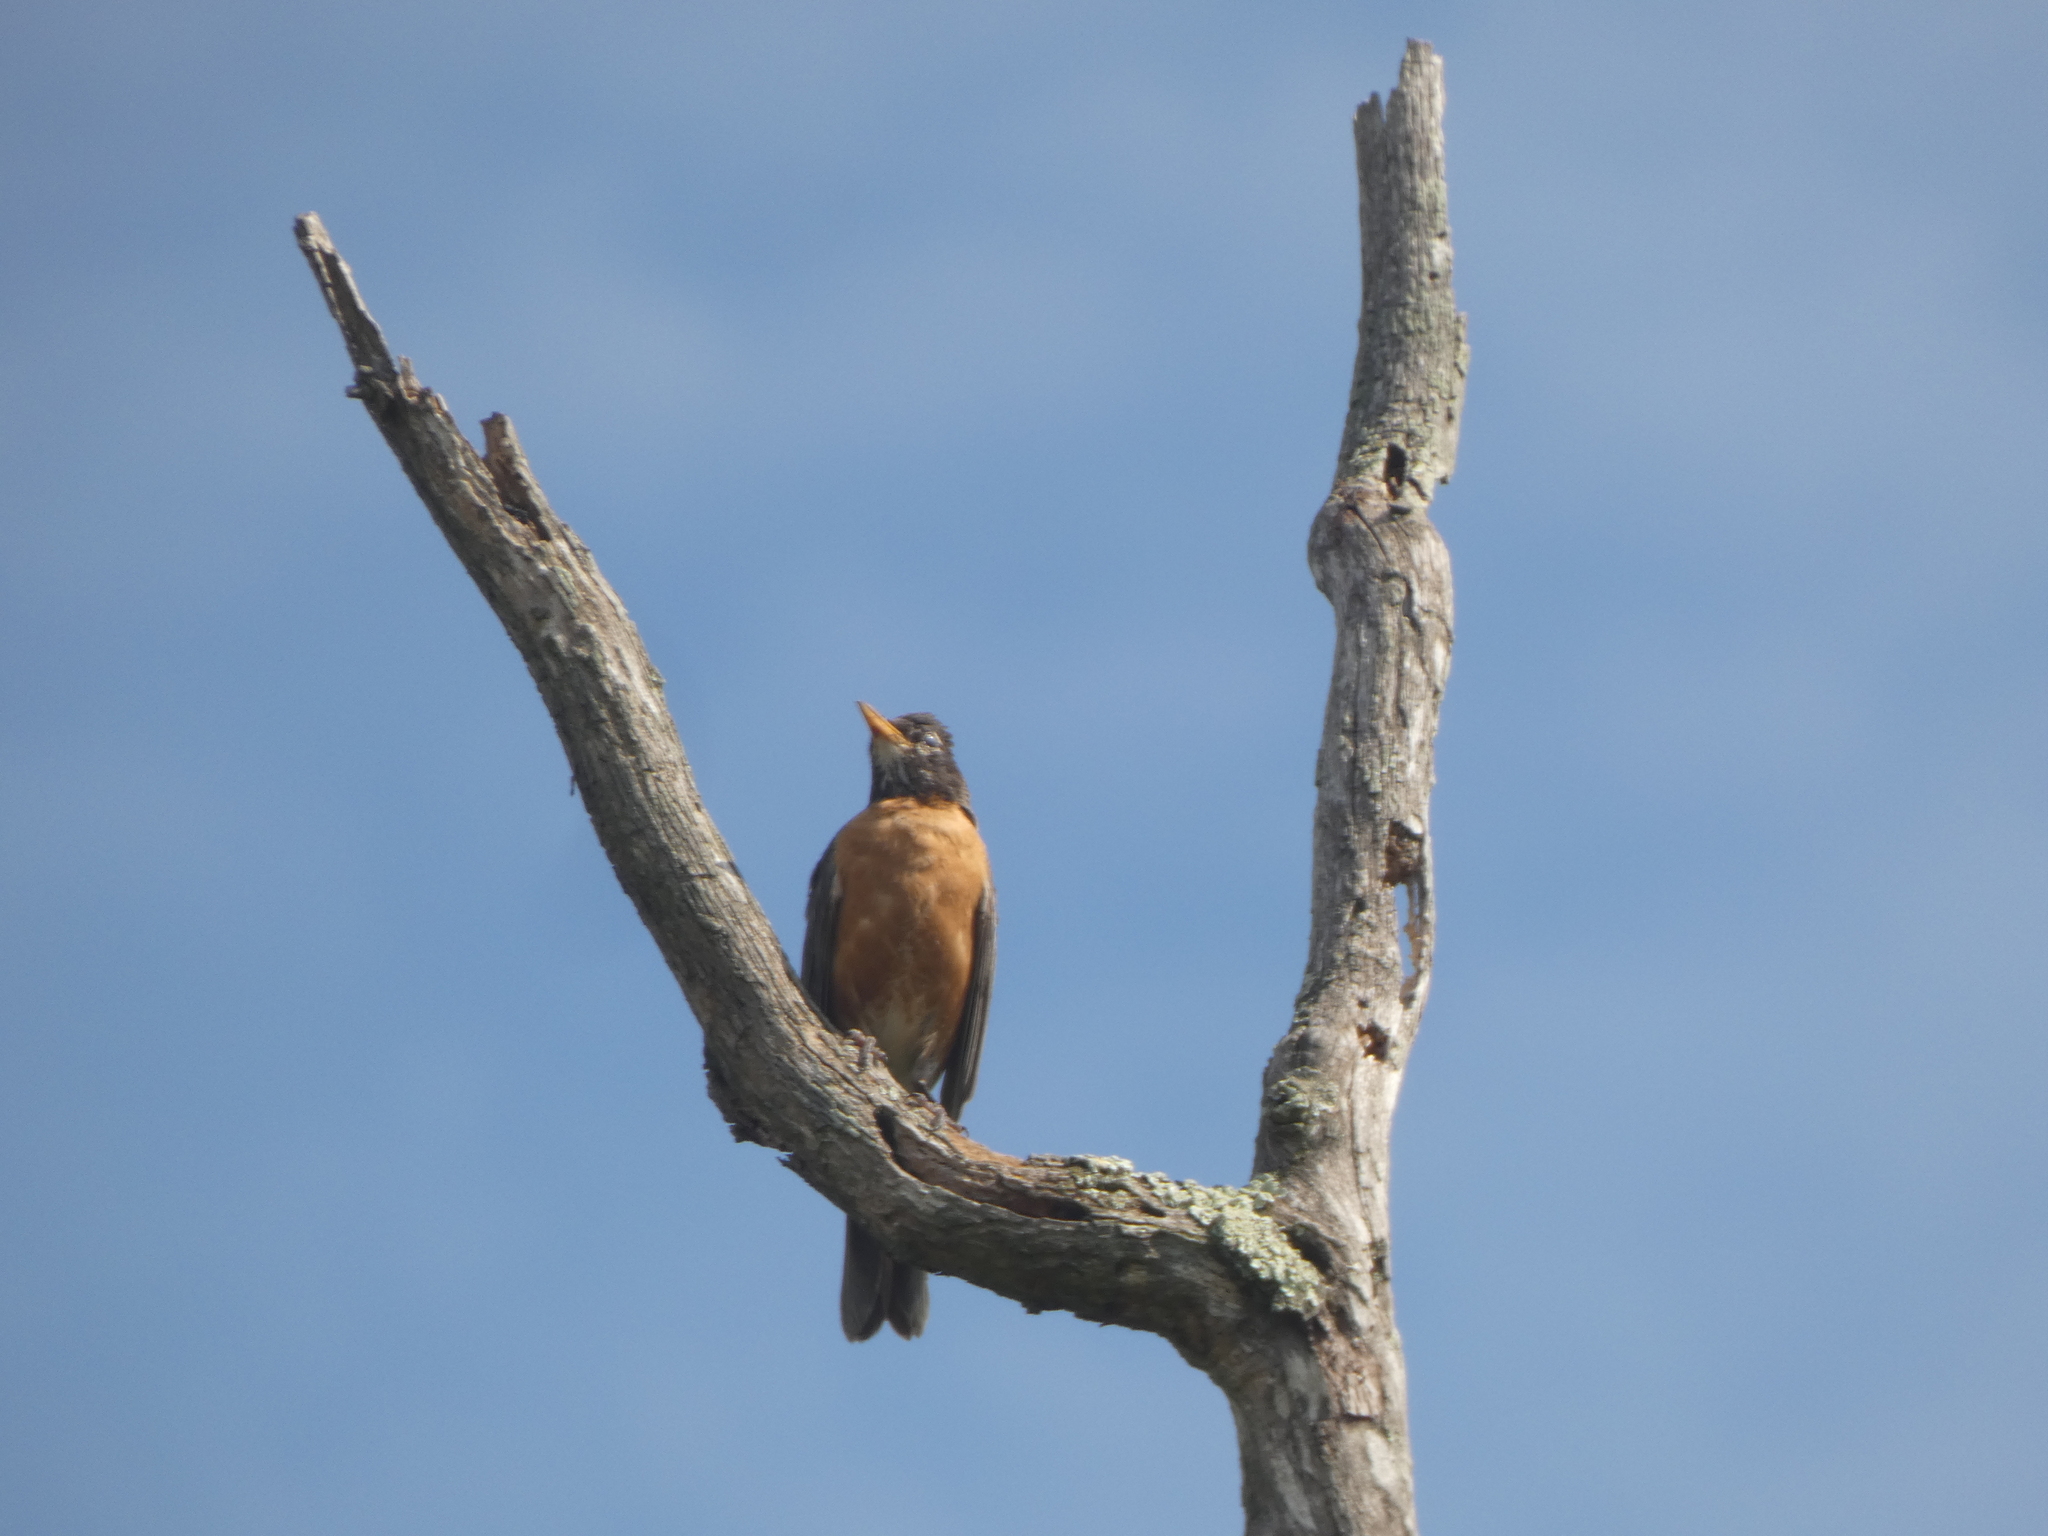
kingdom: Animalia
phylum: Chordata
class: Aves
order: Passeriformes
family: Turdidae
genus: Turdus
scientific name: Turdus migratorius
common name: American robin
